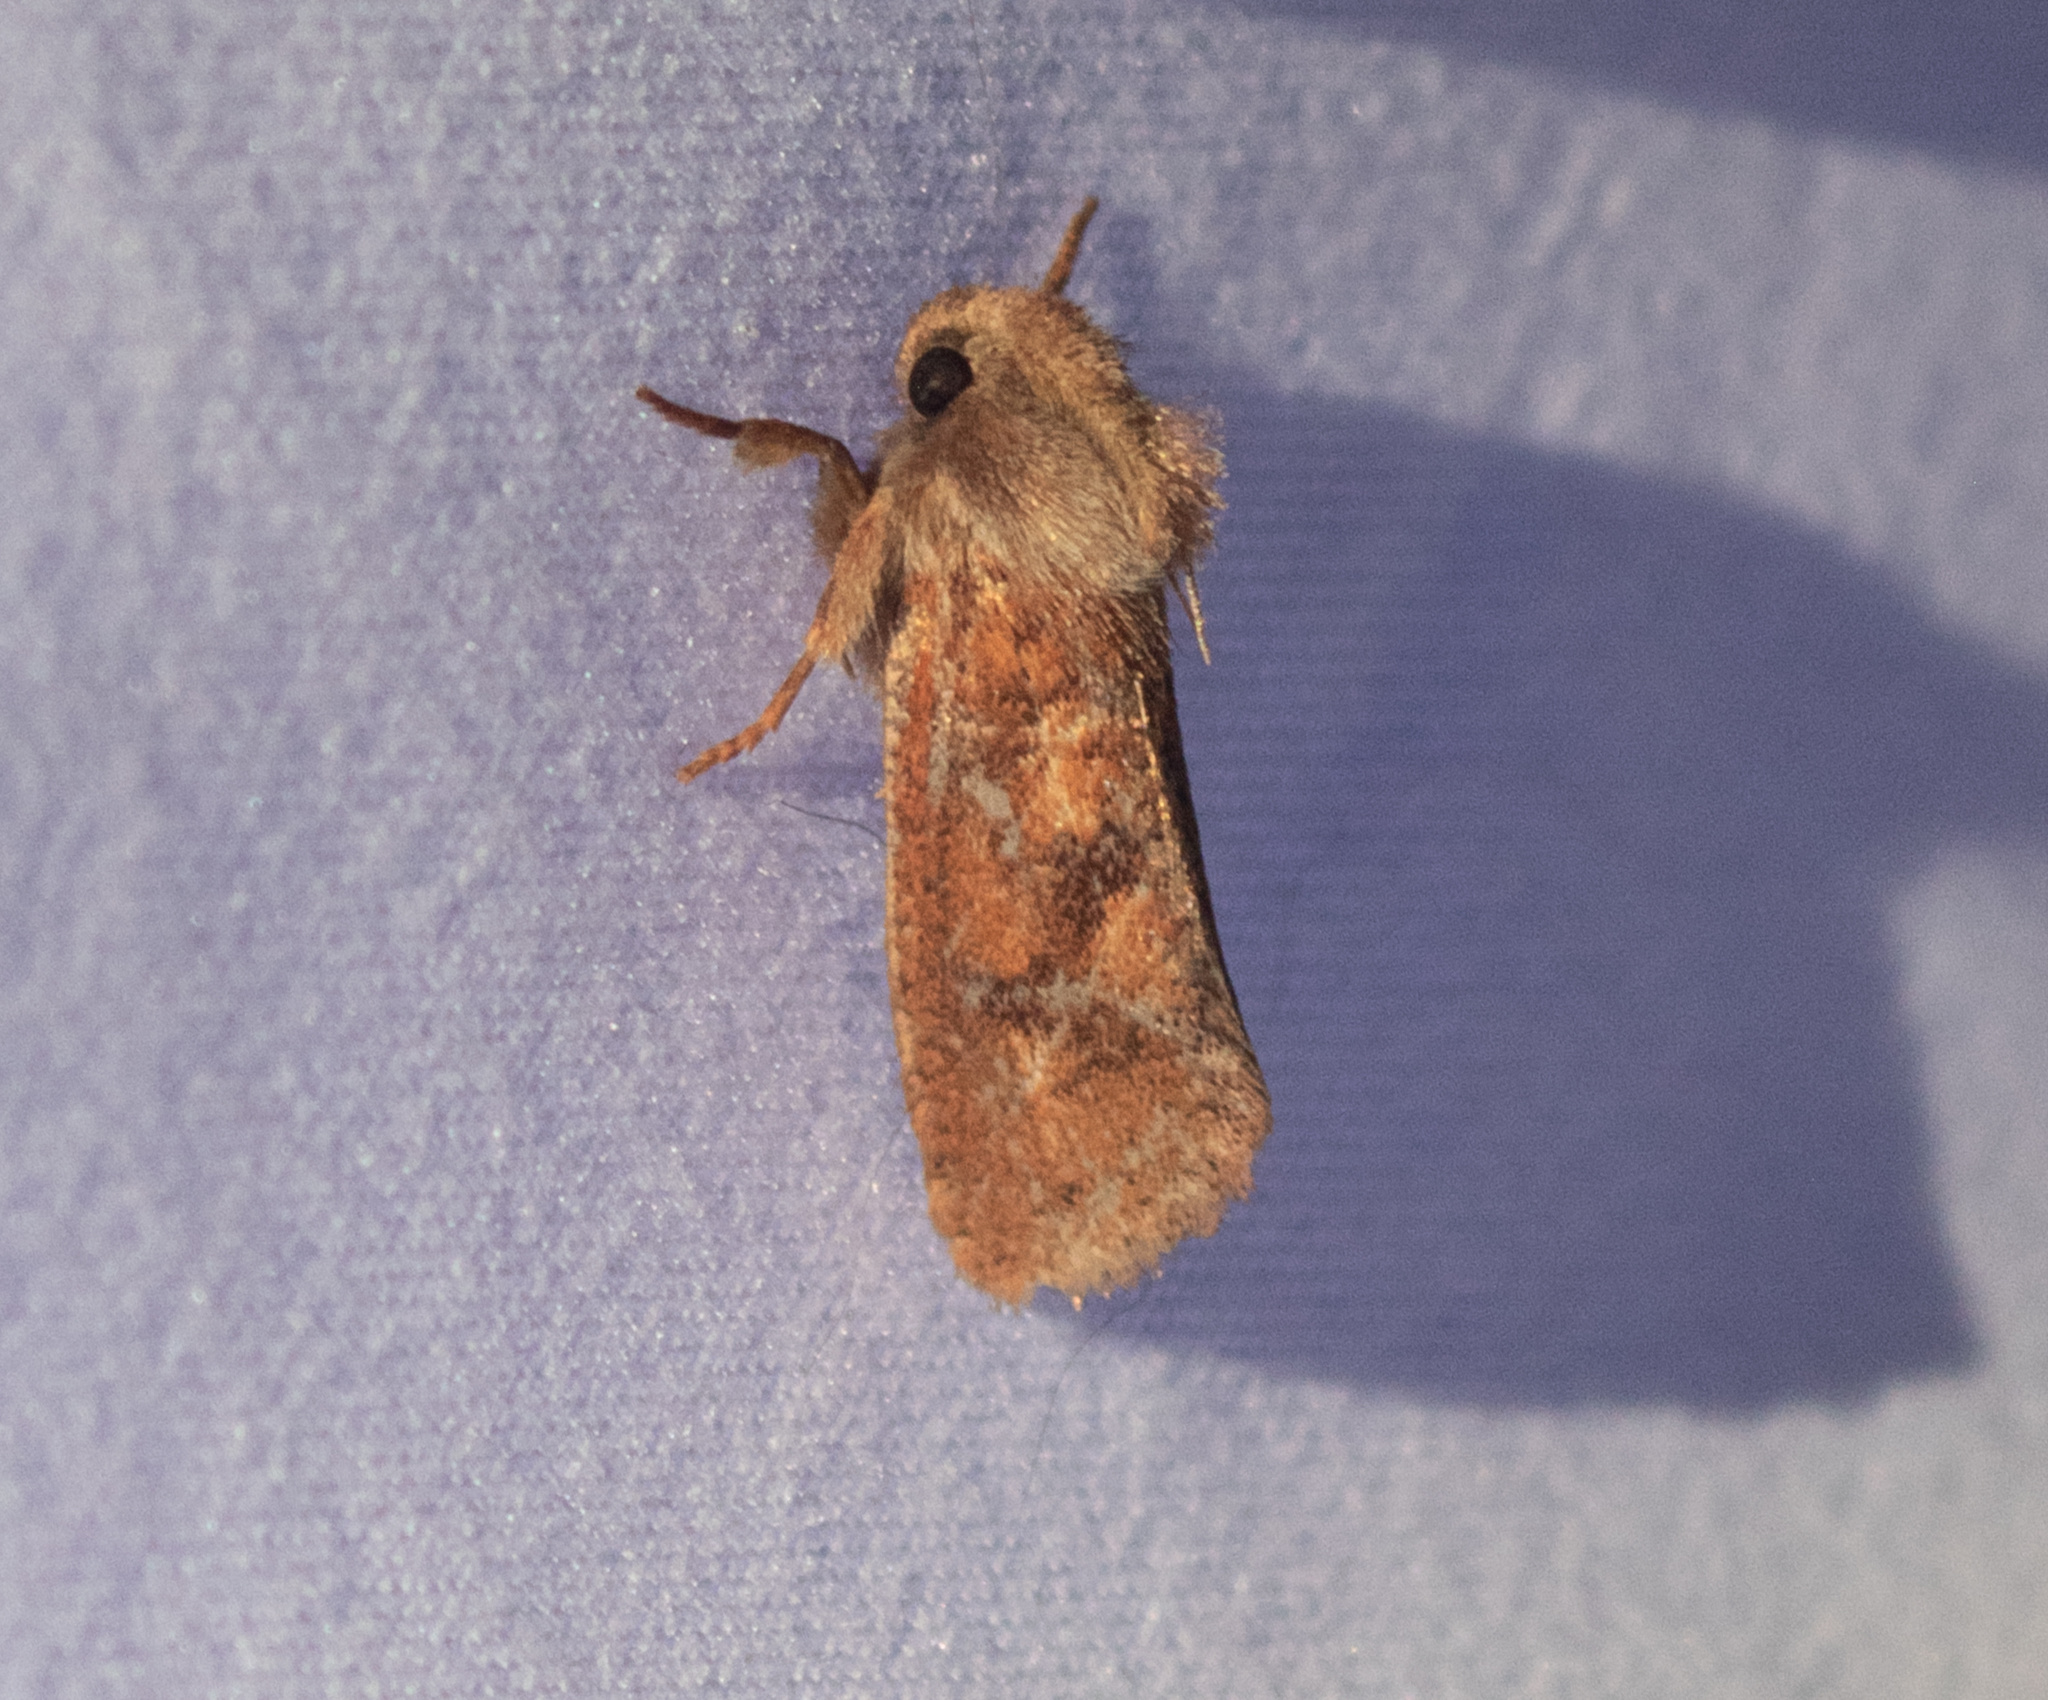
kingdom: Animalia
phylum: Arthropoda
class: Insecta
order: Lepidoptera
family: Tineidae
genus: Acrolophus
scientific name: Acrolophus plumifrontella
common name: Eastern grass tubeworm moth
